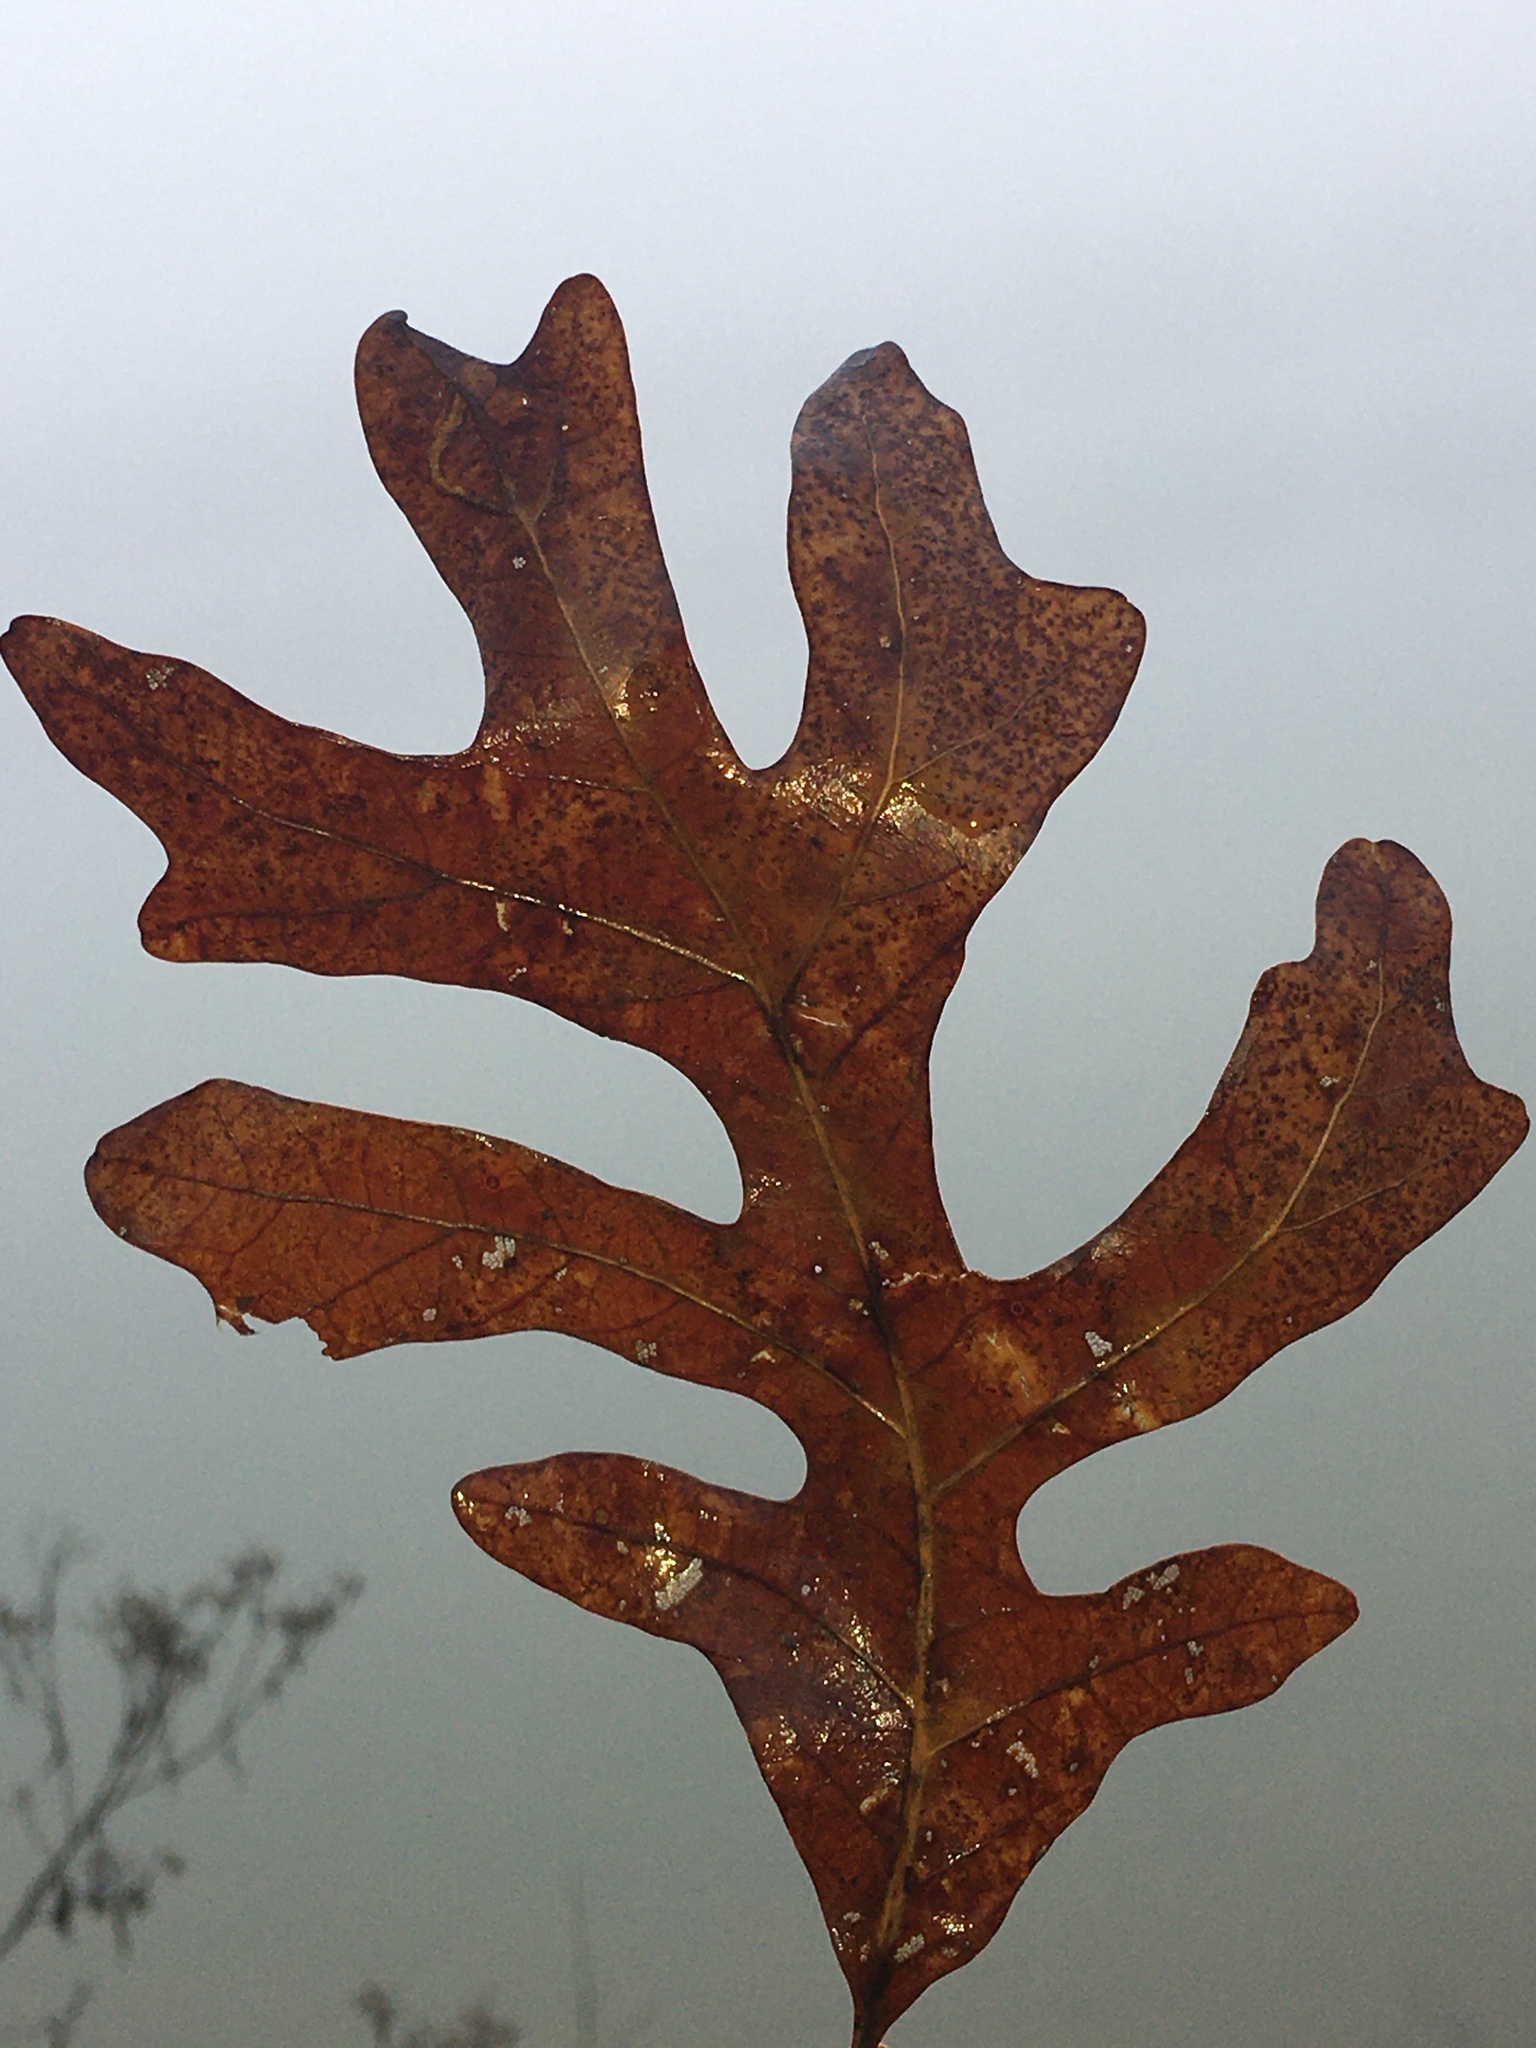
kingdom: Plantae
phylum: Tracheophyta
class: Magnoliopsida
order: Fagales
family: Fagaceae
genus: Quercus
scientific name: Quercus alba
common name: White oak
